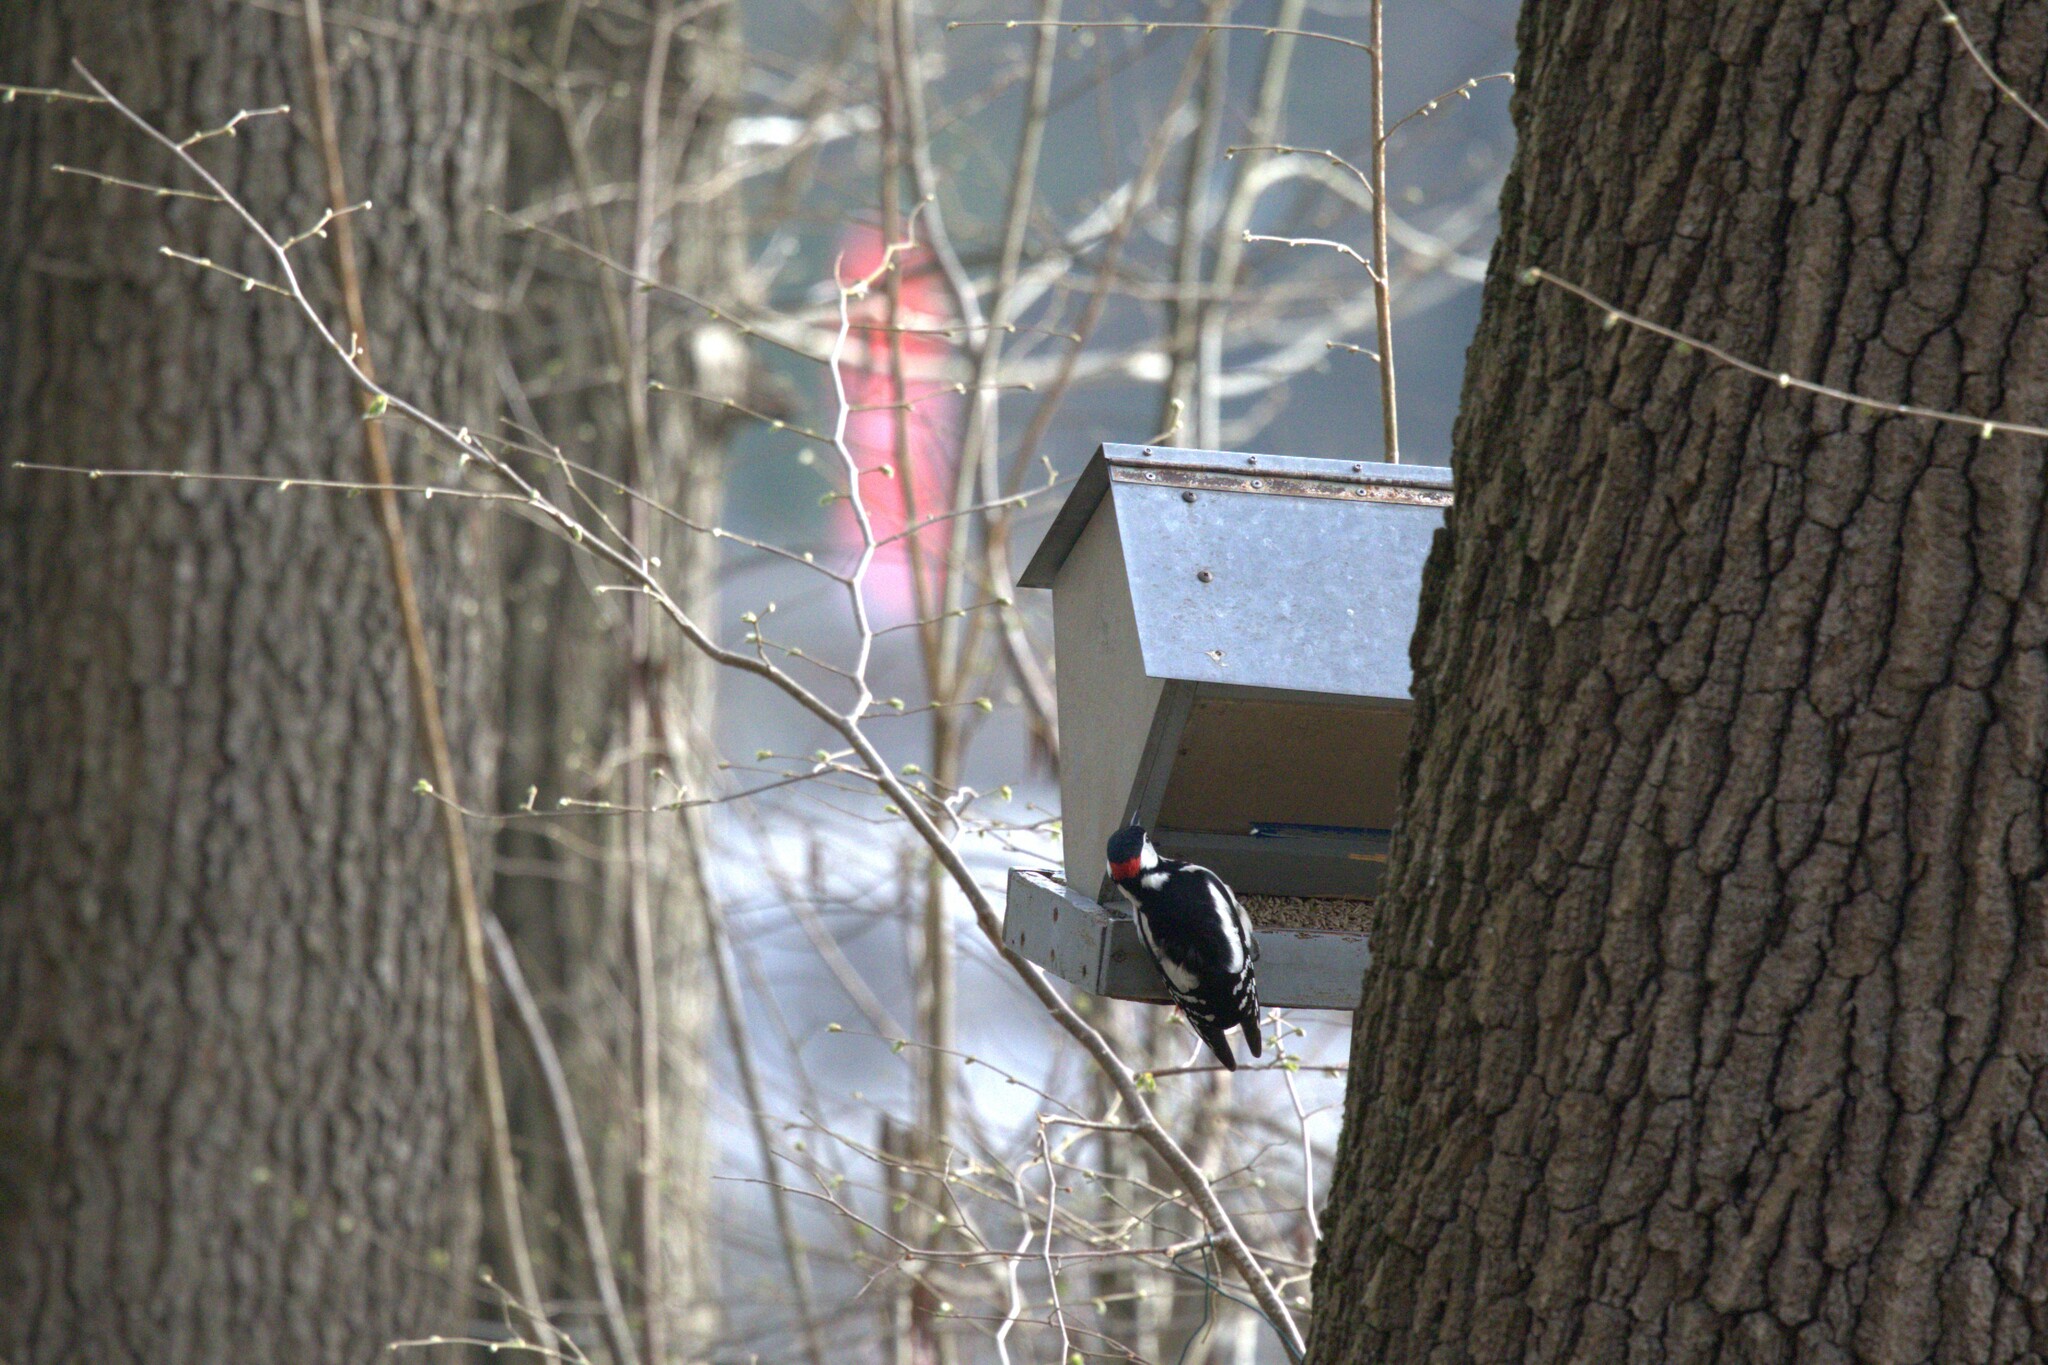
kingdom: Animalia
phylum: Chordata
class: Aves
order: Piciformes
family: Picidae
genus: Dendrocopos
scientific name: Dendrocopos major
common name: Great spotted woodpecker
